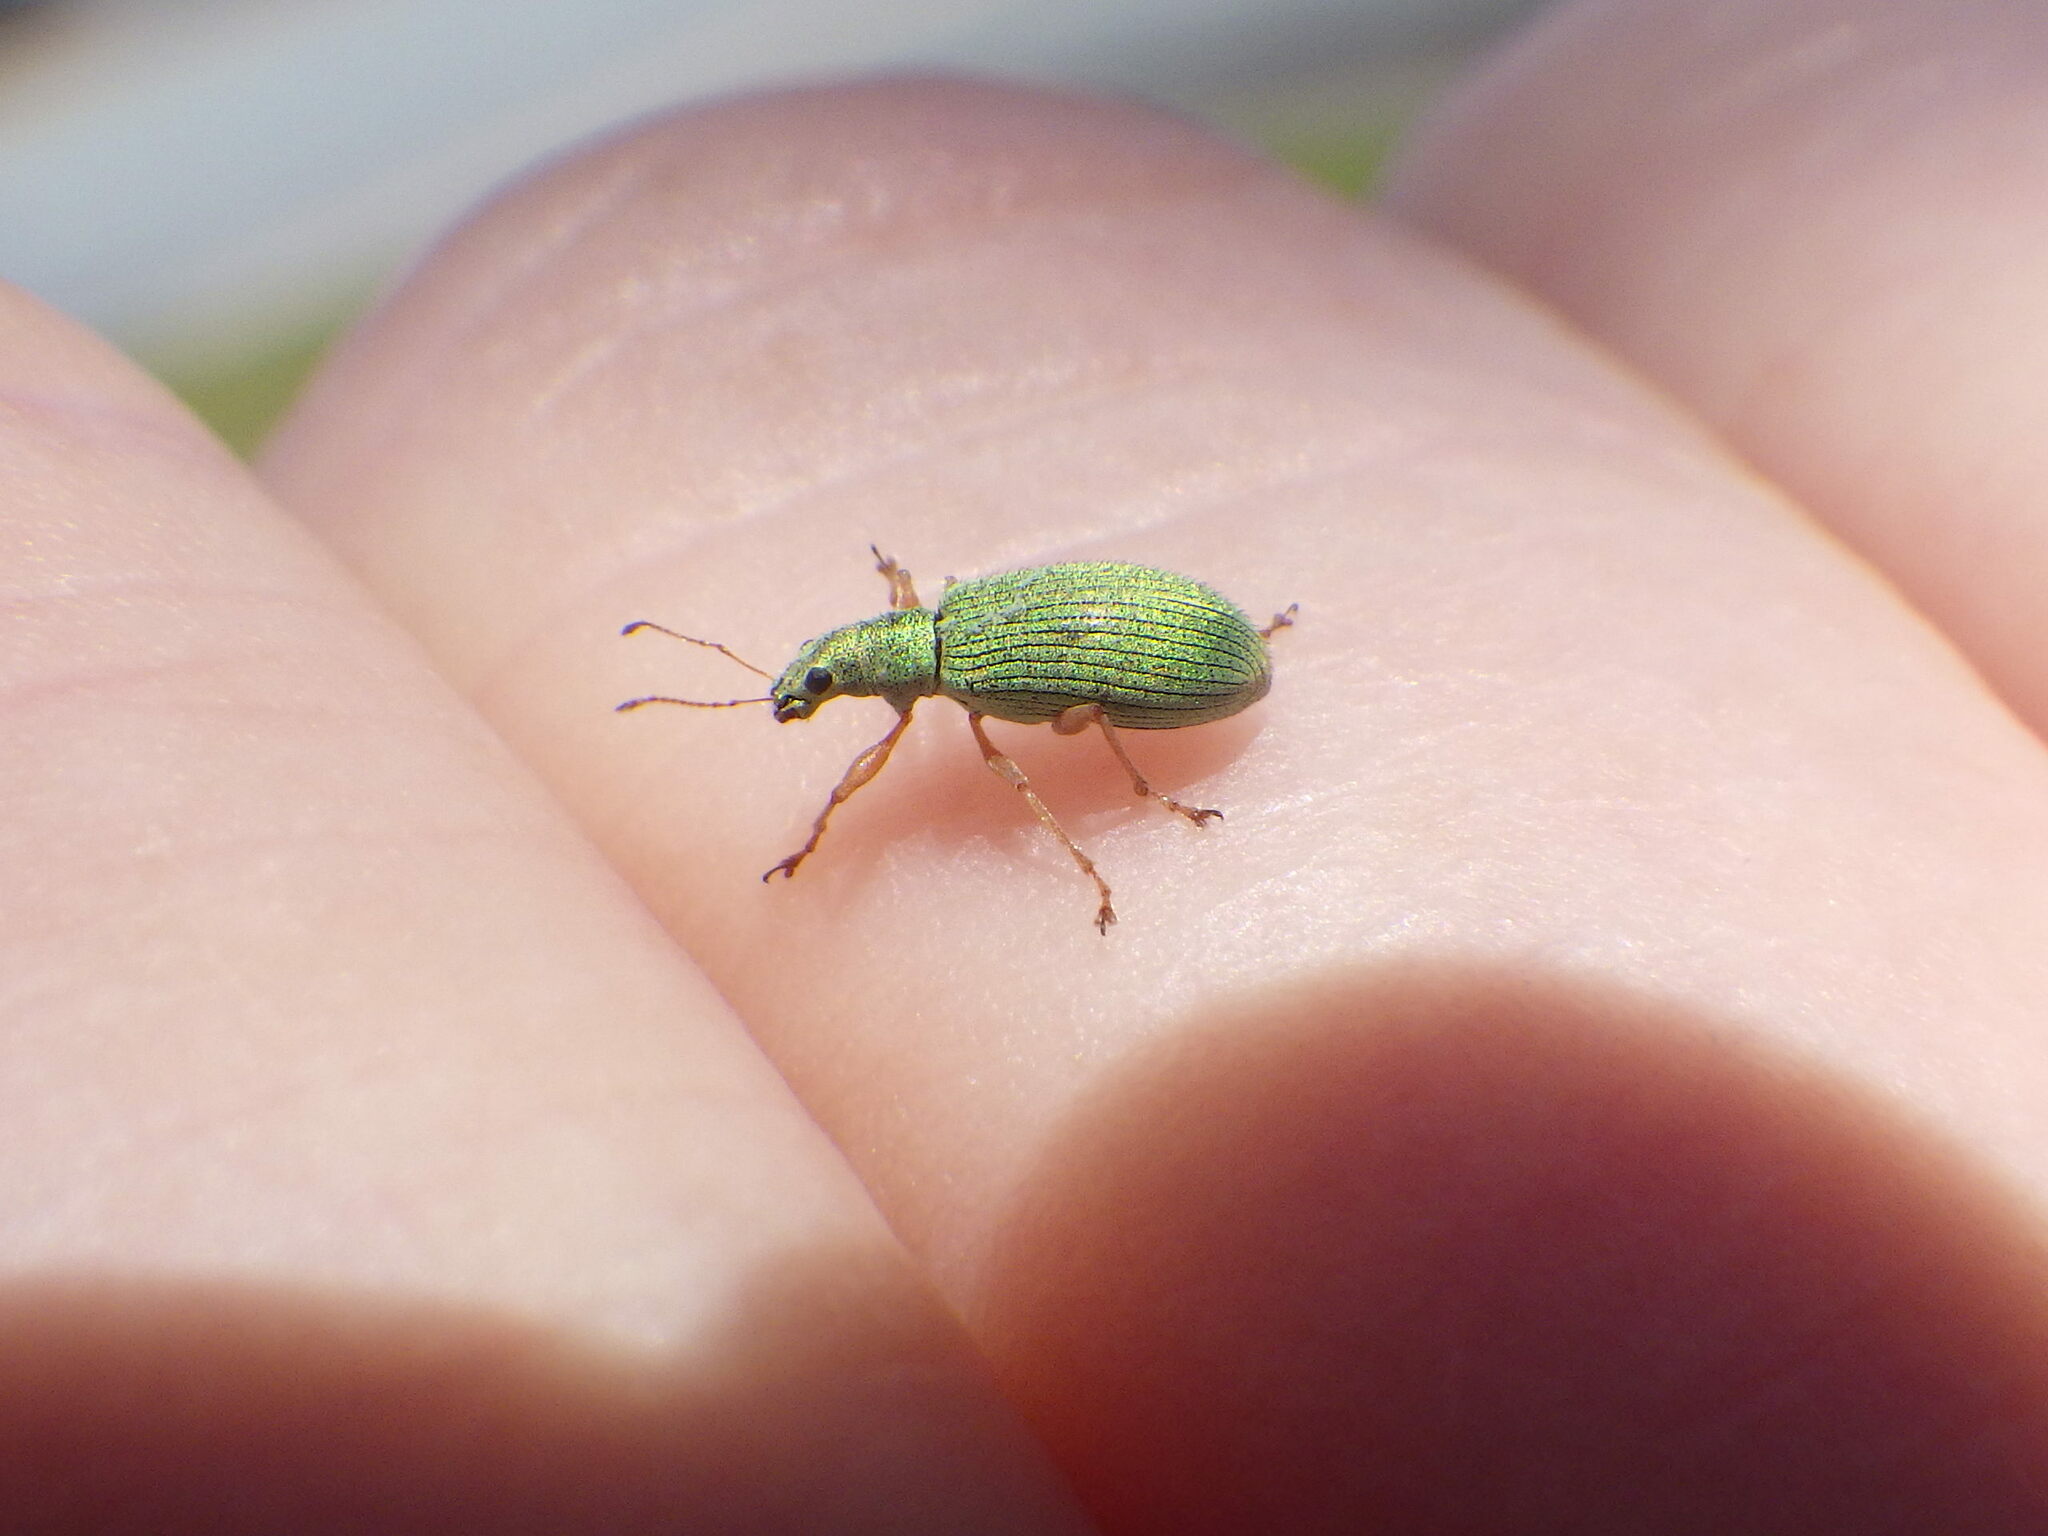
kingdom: Animalia
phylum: Arthropoda
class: Insecta
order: Coleoptera
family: Curculionidae
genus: Polydrusus
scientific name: Polydrusus impressifrons
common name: Weevil
